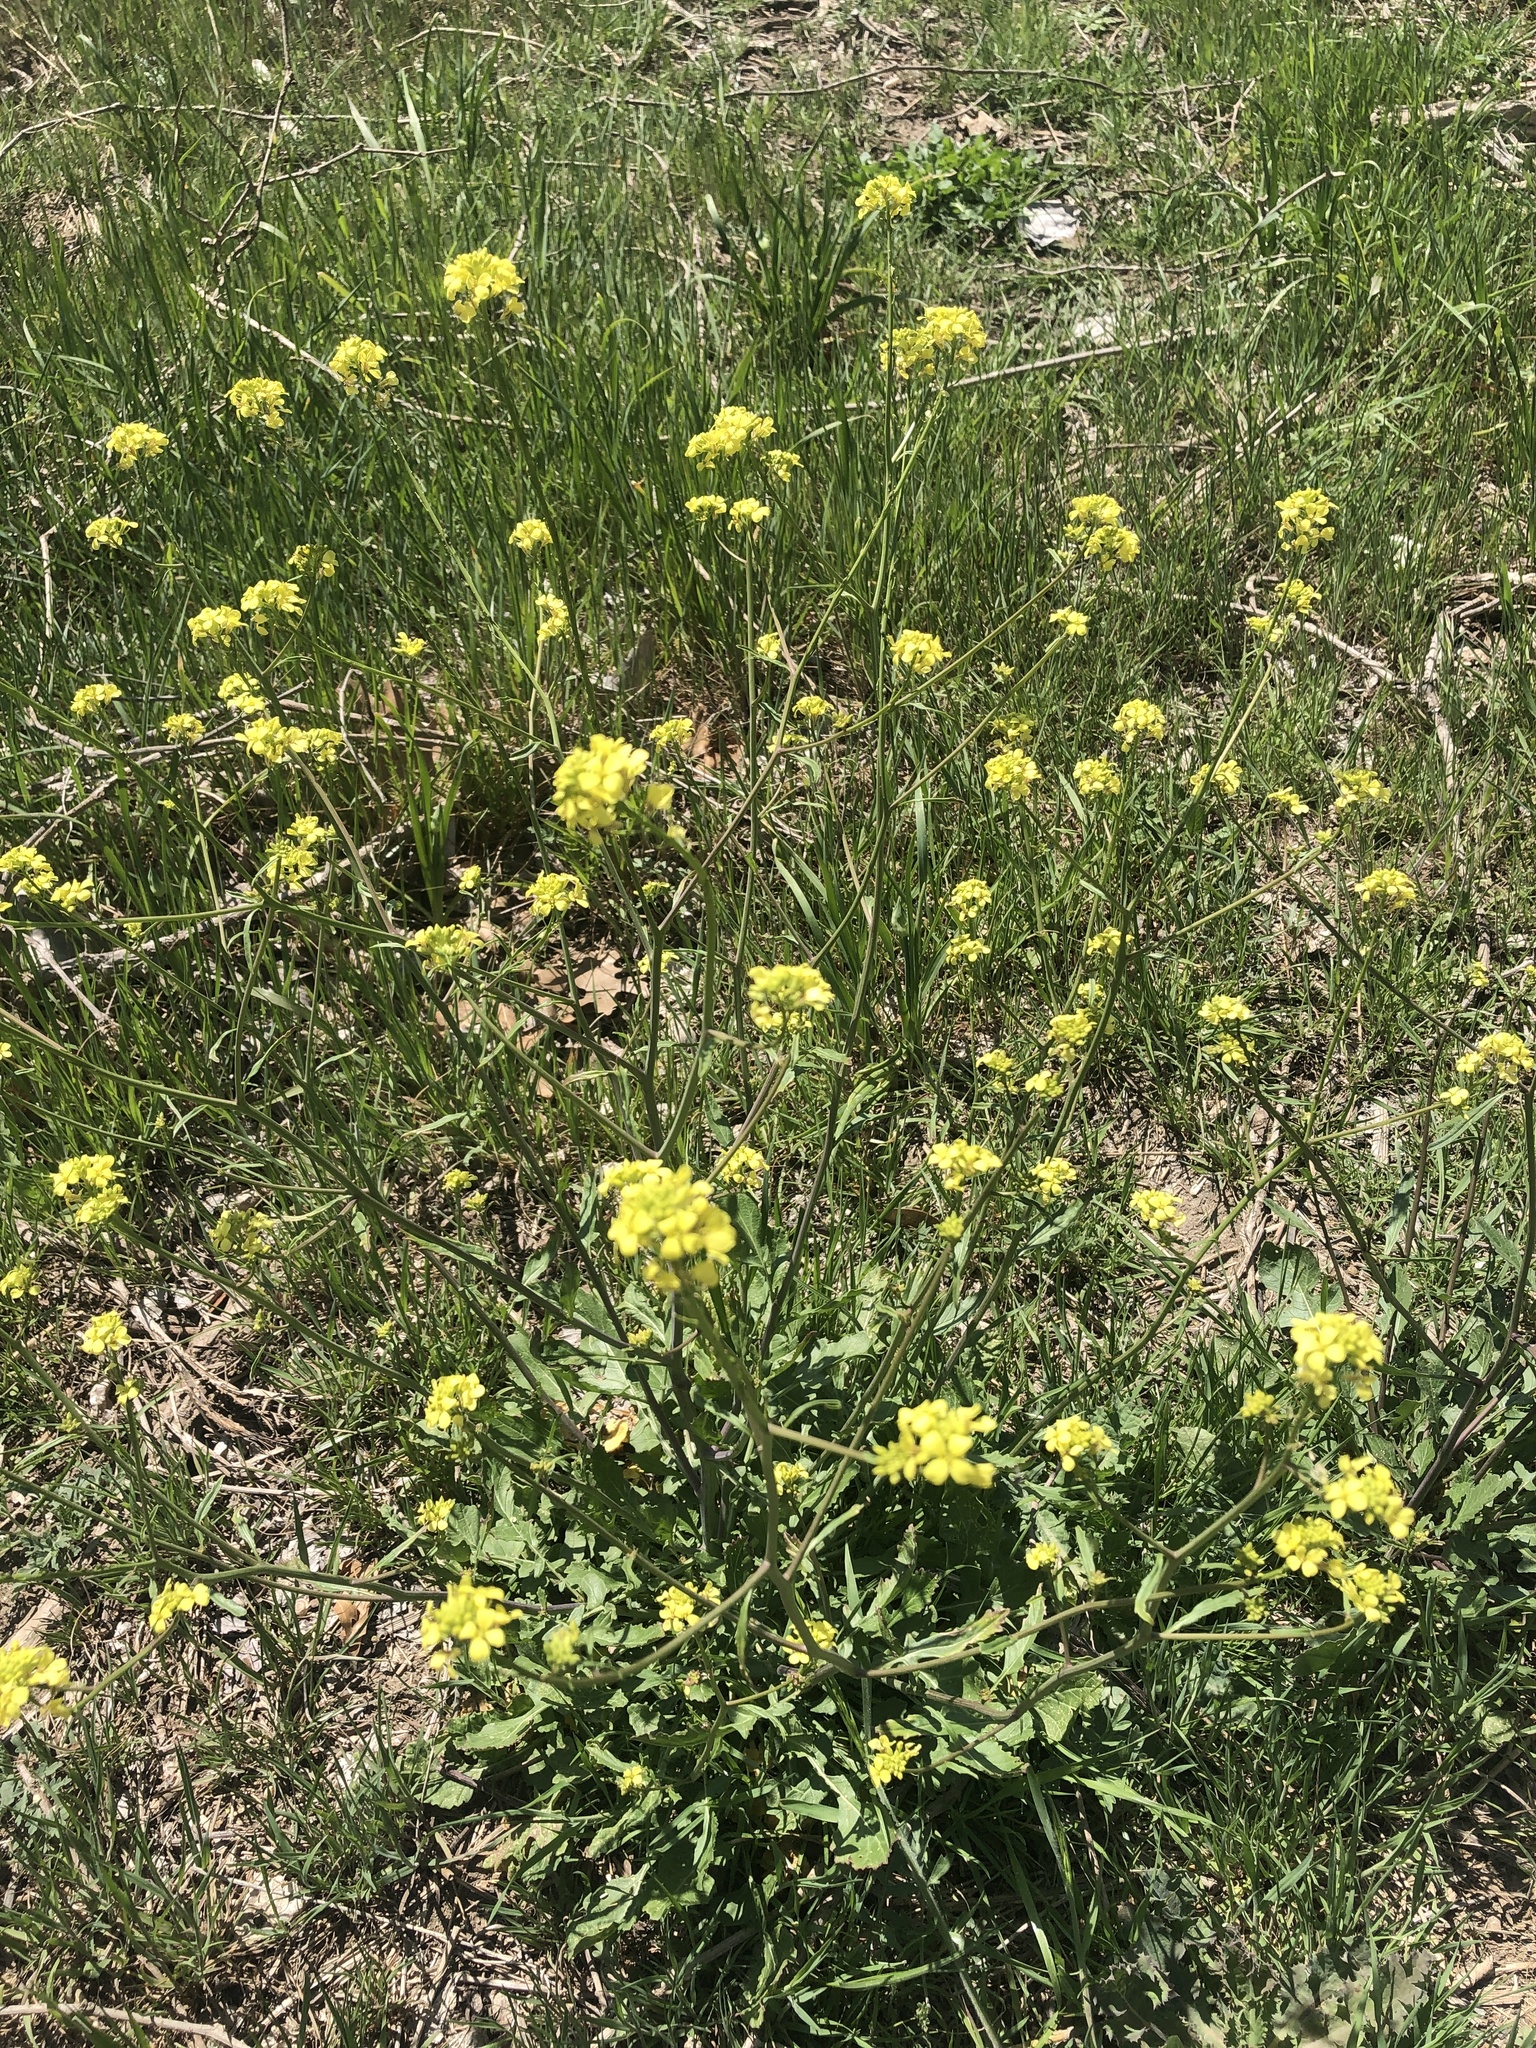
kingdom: Plantae
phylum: Tracheophyta
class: Magnoliopsida
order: Brassicales
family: Brassicaceae
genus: Rapistrum
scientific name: Rapistrum rugosum
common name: Annual bastardcabbage
